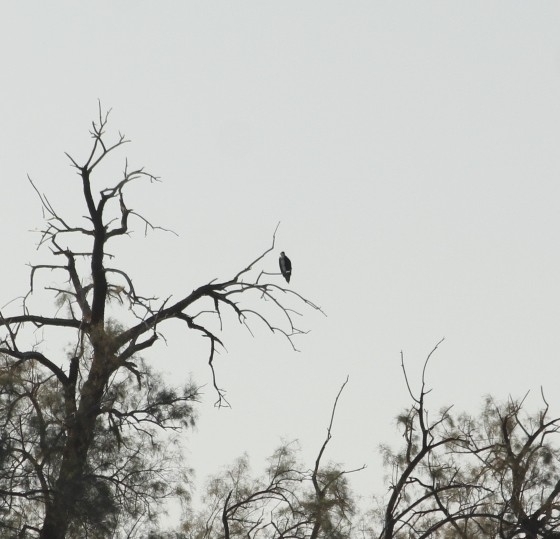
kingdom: Animalia
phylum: Chordata
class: Aves
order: Accipitriformes
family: Pandionidae
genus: Pandion
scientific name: Pandion haliaetus
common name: Osprey
